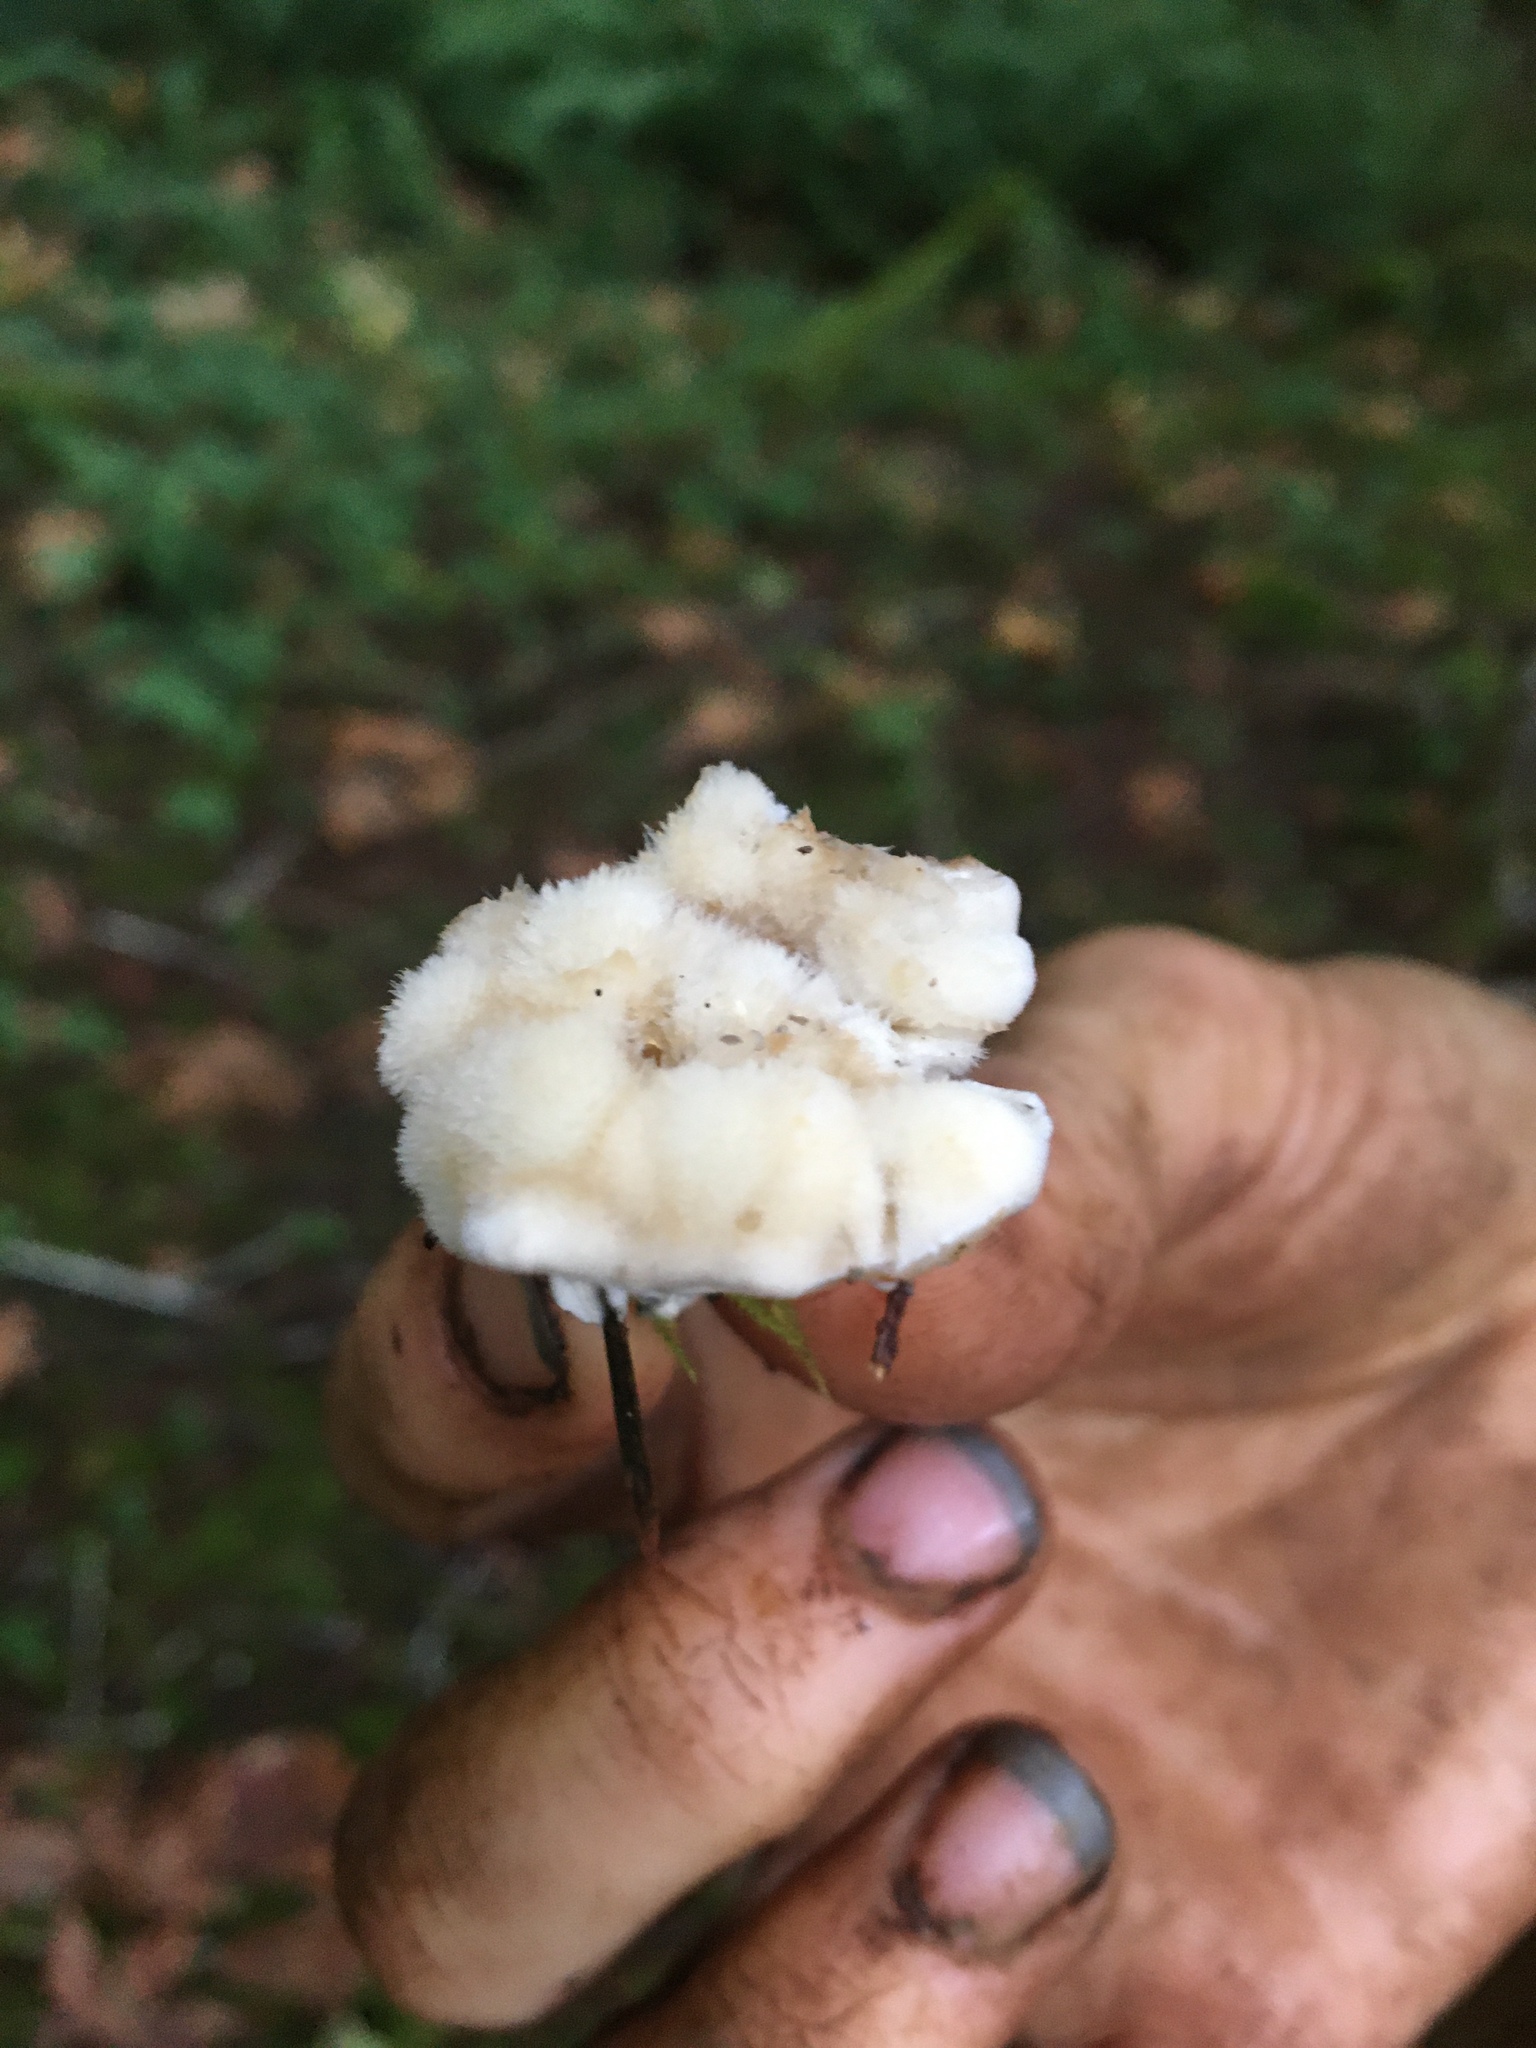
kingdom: Fungi
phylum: Basidiomycota
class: Agaricomycetes
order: Polyporales
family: Dacryobolaceae
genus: Postia
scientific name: Postia ptychogaster
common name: Powderpuff bracket
